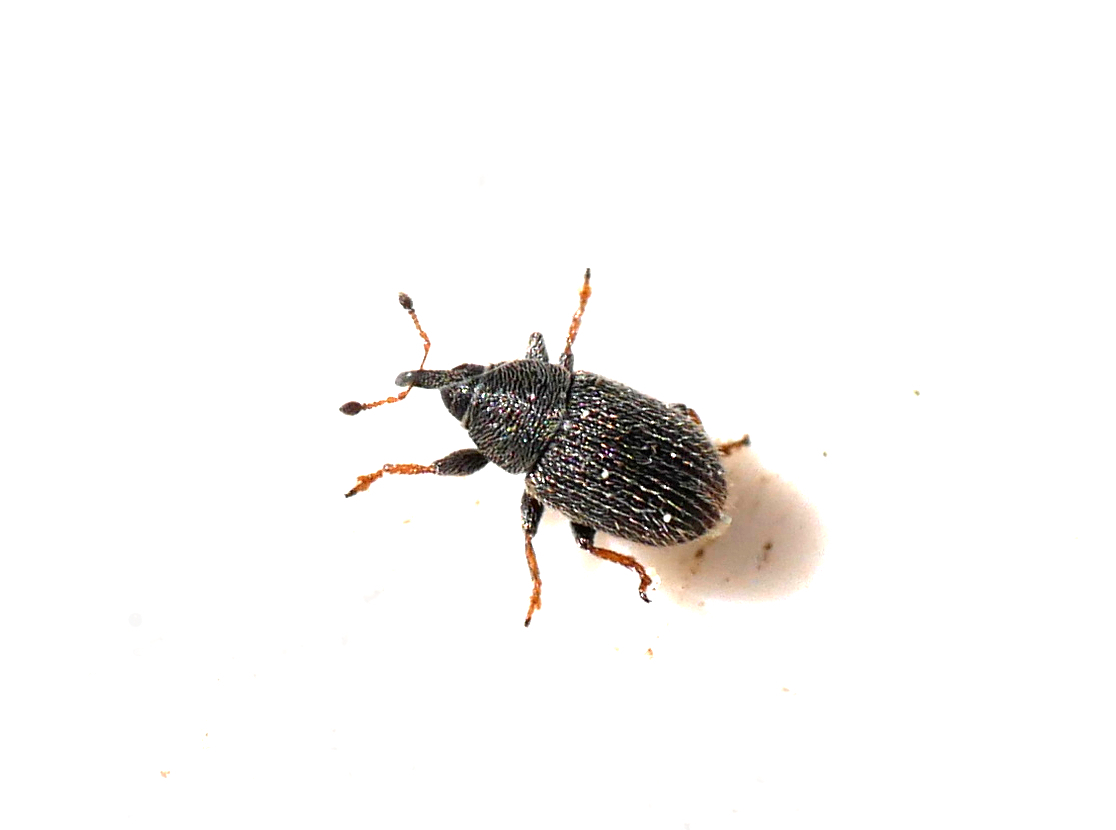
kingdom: Animalia
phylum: Arthropoda
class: Insecta
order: Coleoptera
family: Curculionidae
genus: Mecinus
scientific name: Mecinus pascuorum
